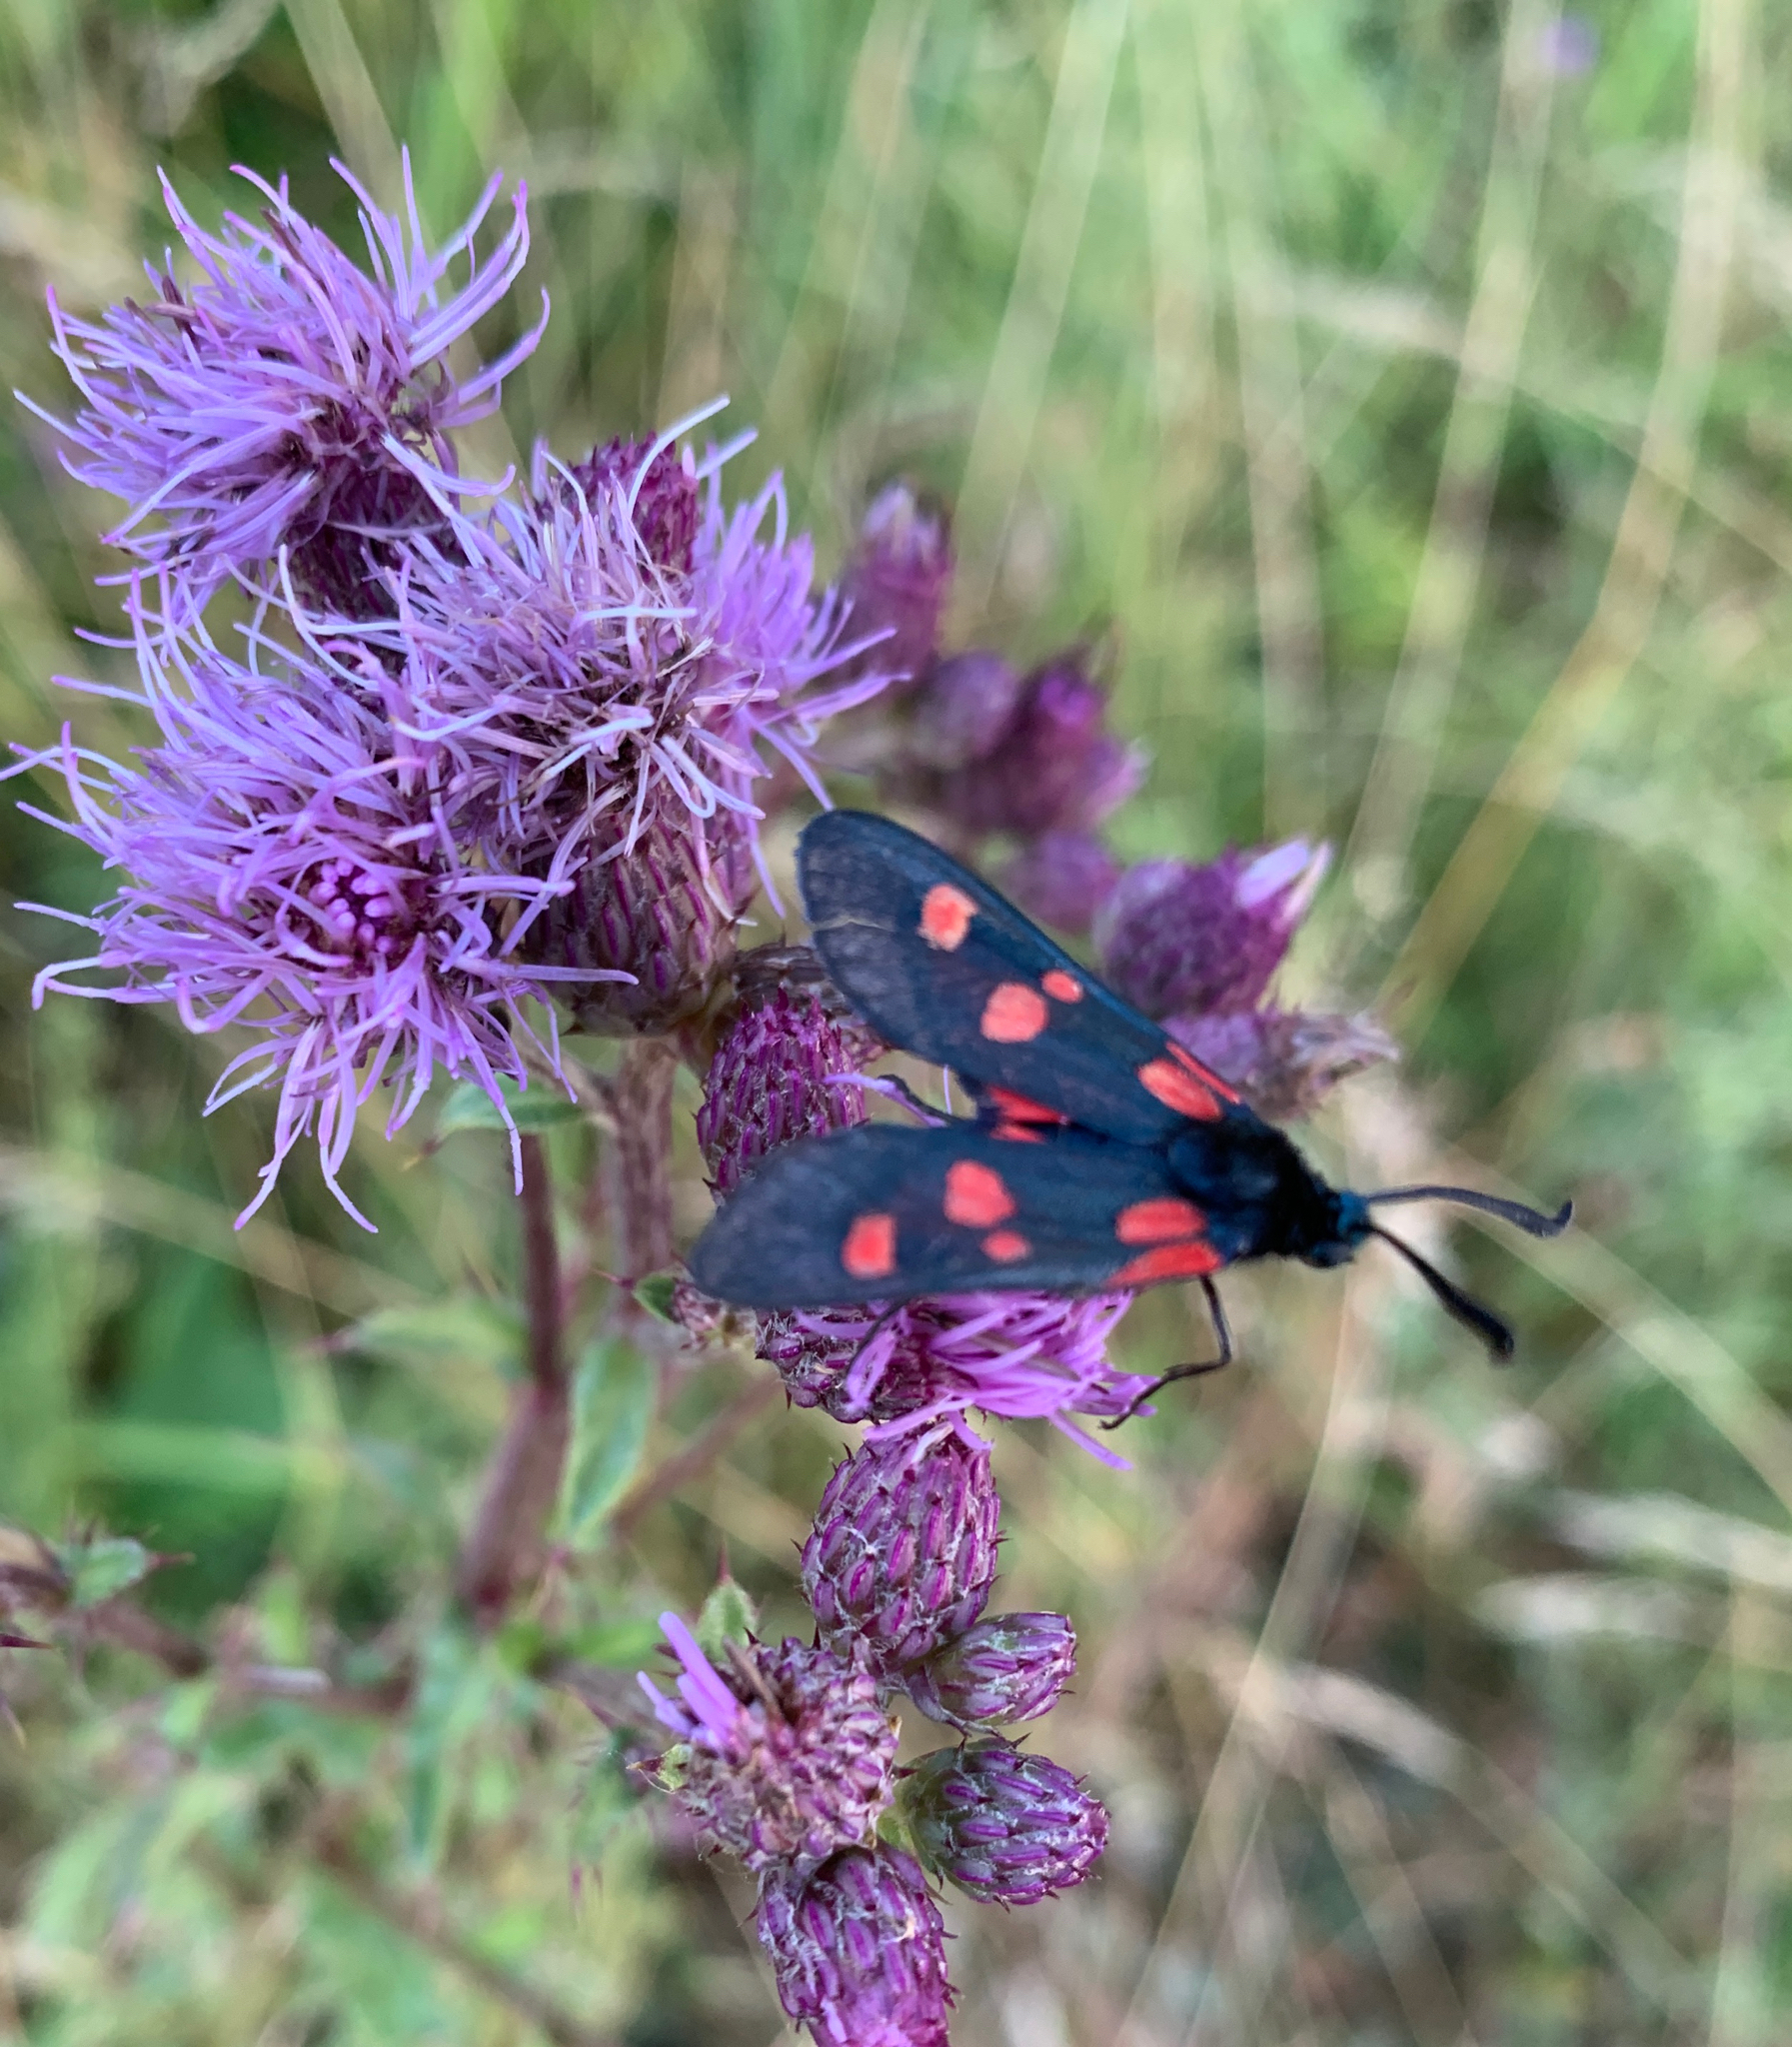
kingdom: Animalia
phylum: Arthropoda
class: Insecta
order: Lepidoptera
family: Zygaenidae
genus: Zygaena
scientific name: Zygaena lonicerae
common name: Narrow-bordered five-spot burnet
